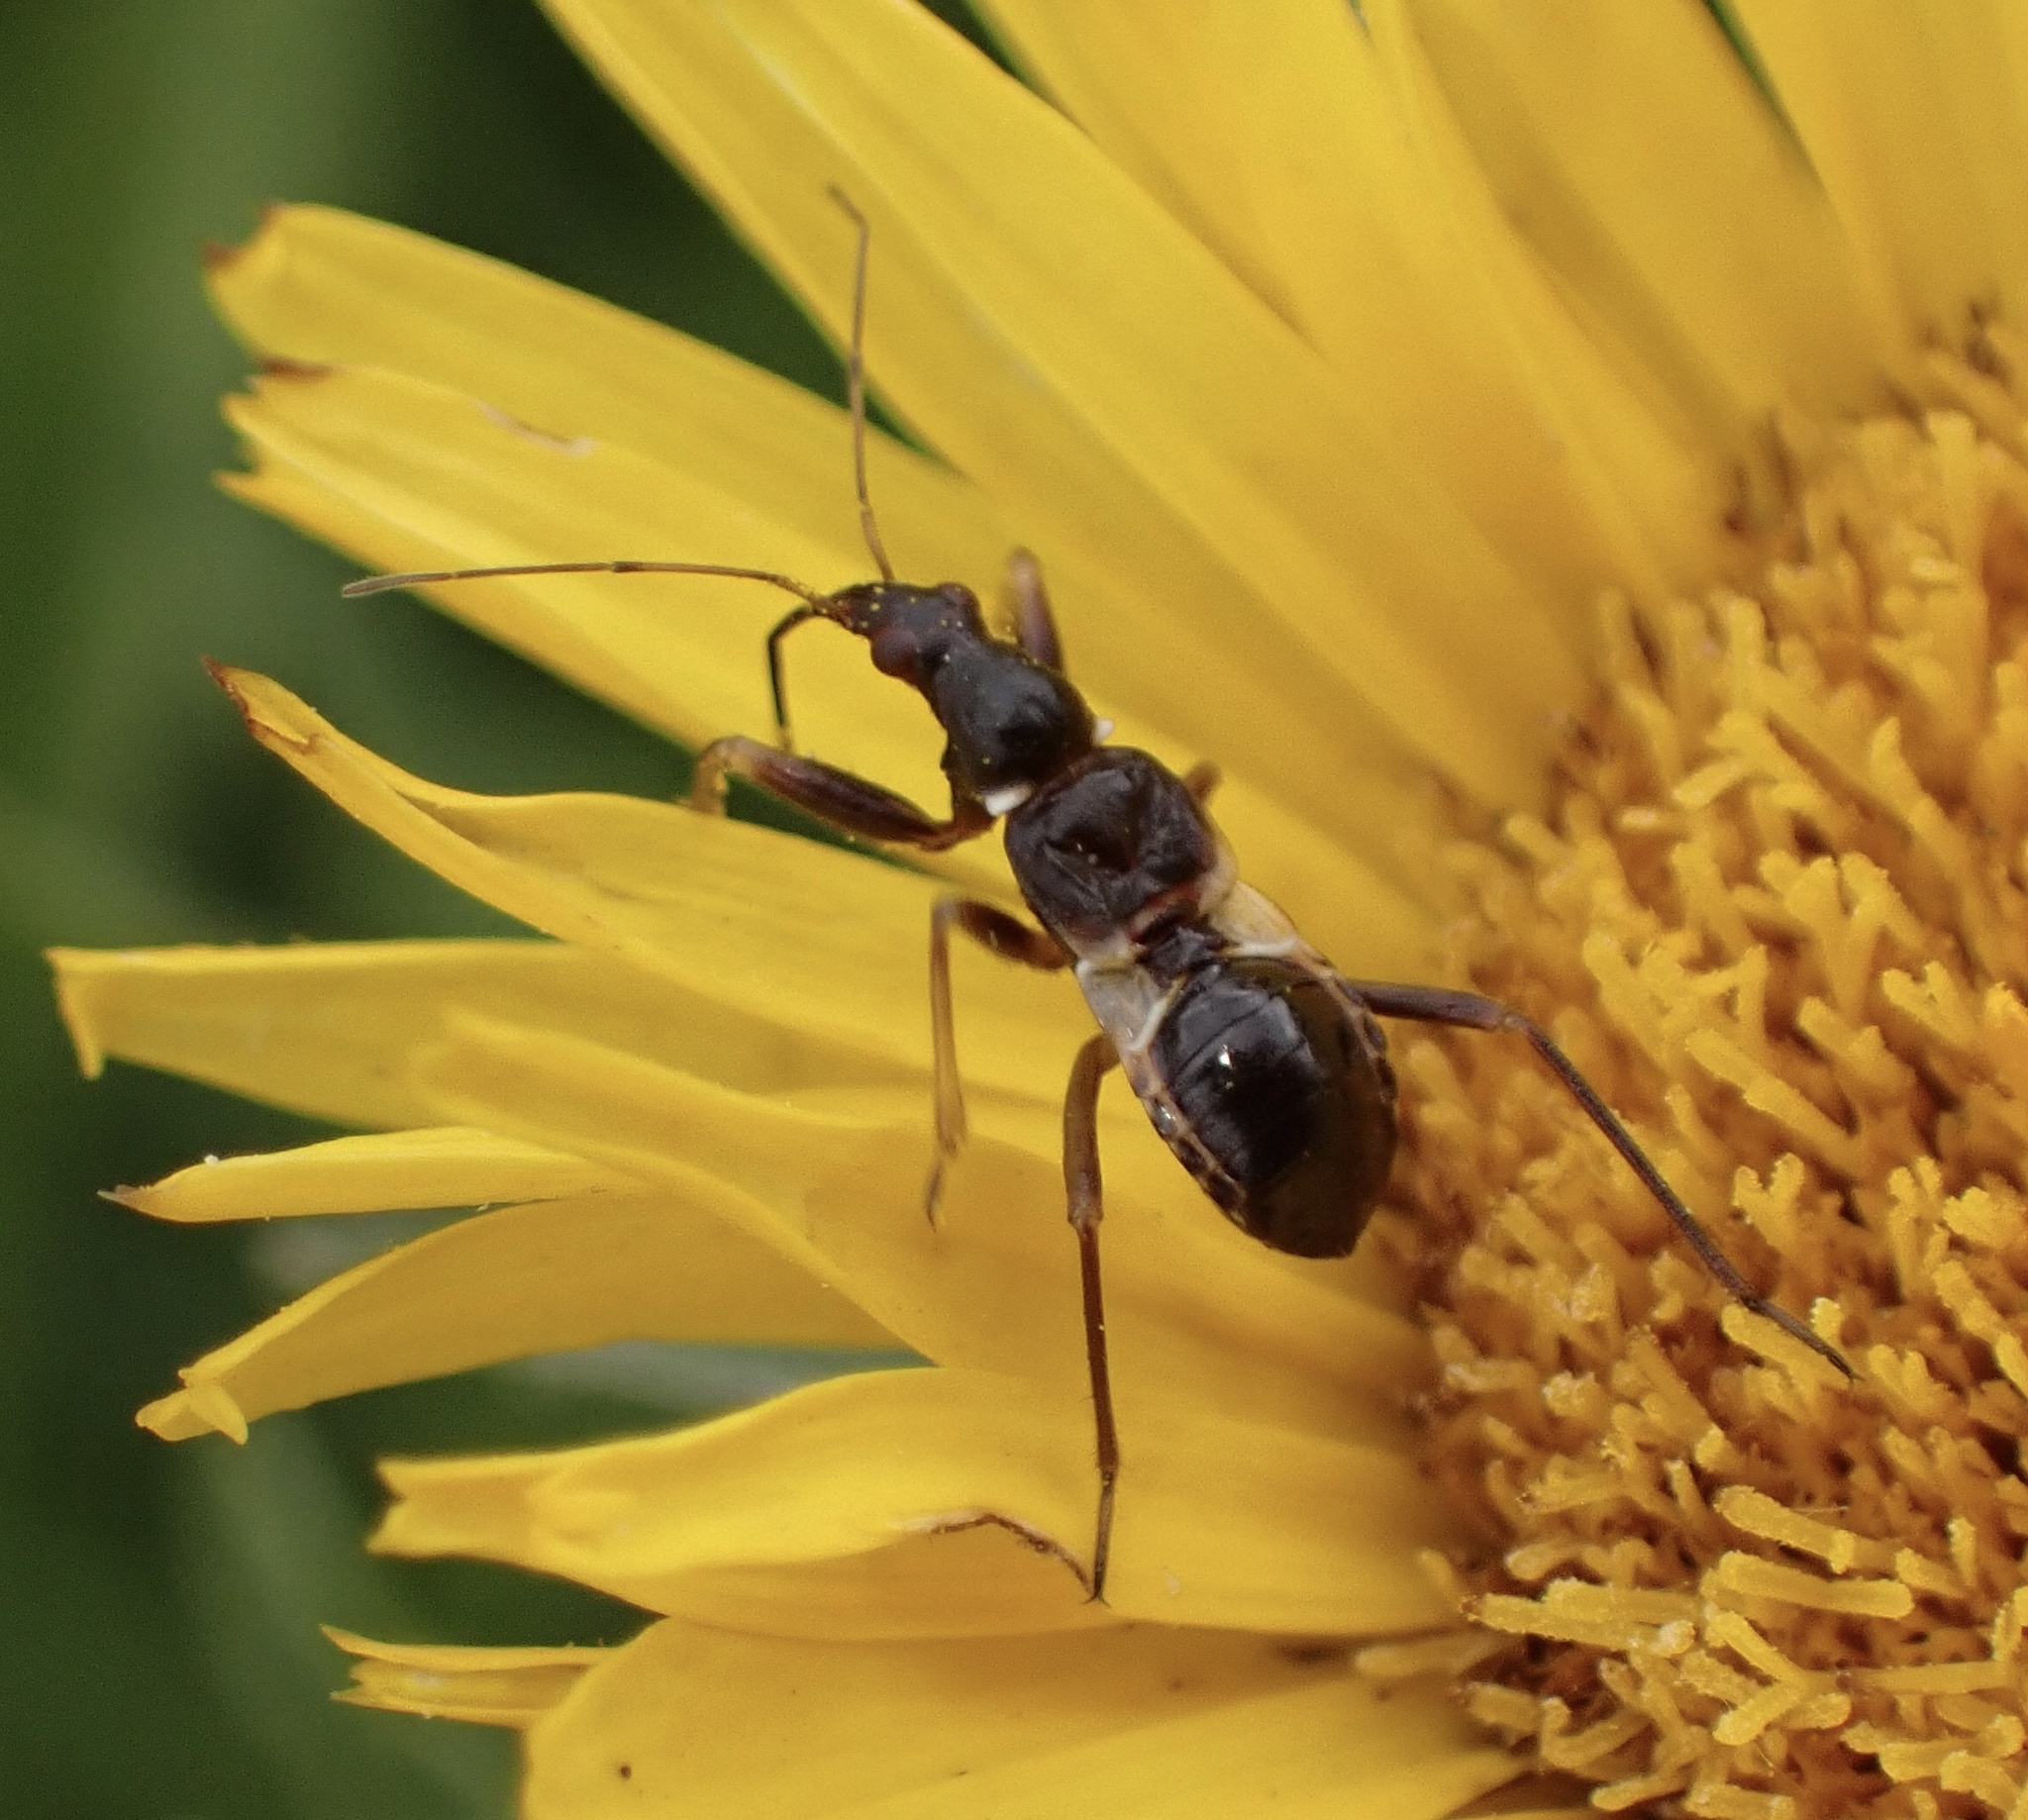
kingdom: Animalia
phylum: Arthropoda
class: Insecta
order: Hemiptera
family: Nabidae
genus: Himacerus
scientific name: Himacerus mirmicoides
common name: Ant damsel bug
